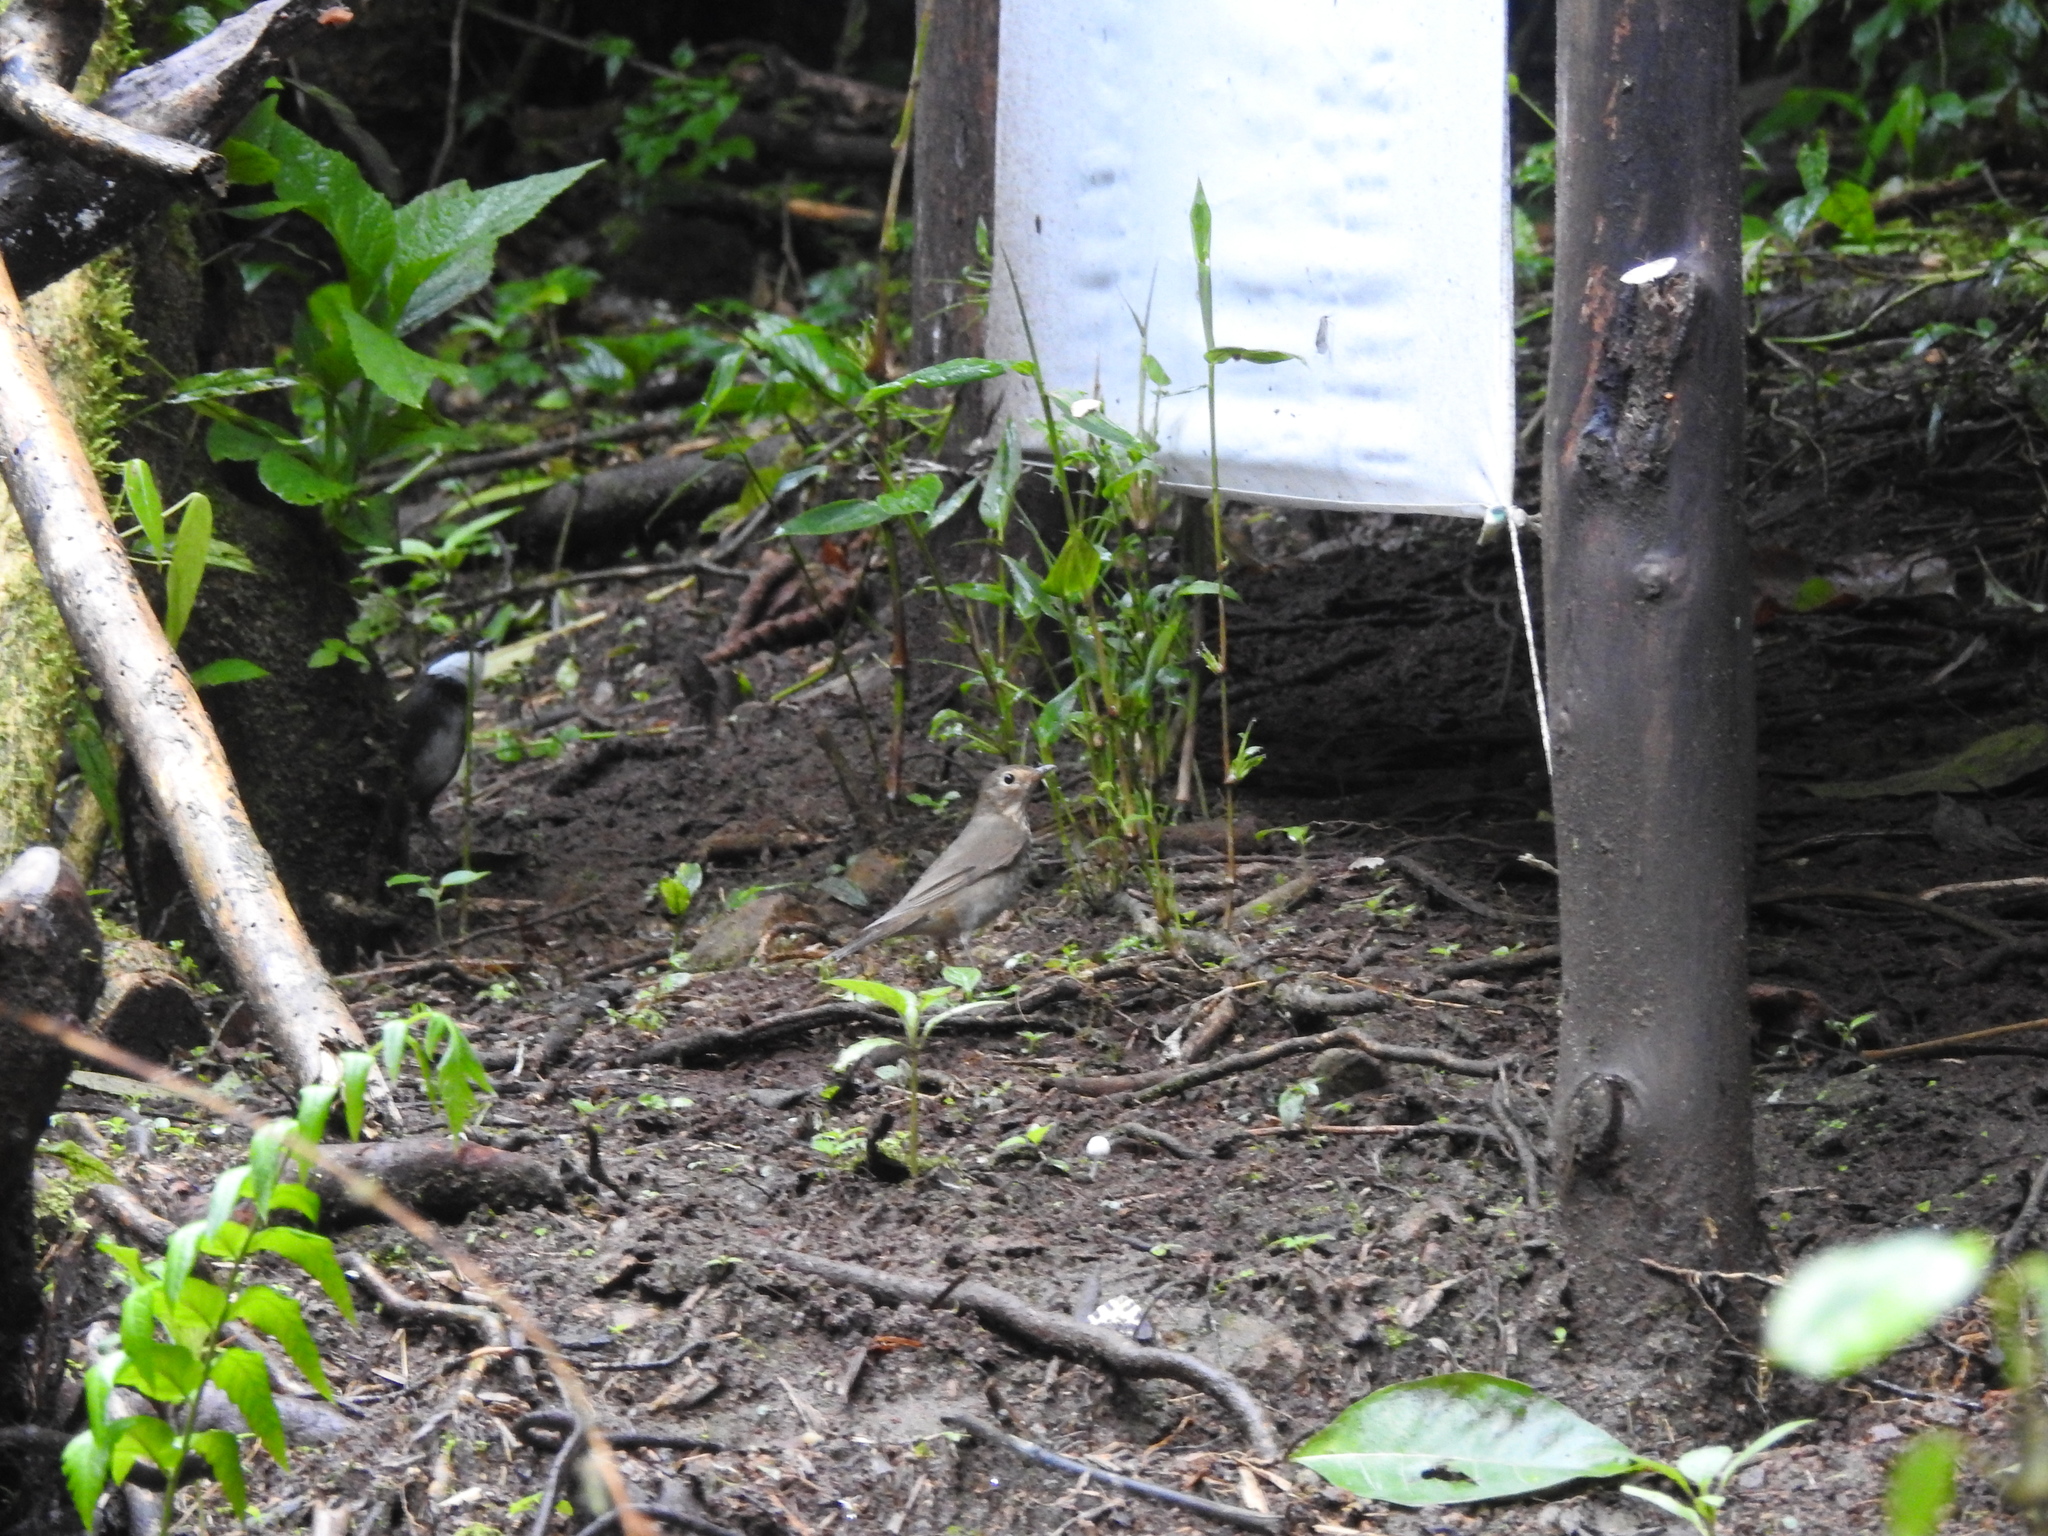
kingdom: Animalia
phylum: Chordata
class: Aves
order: Passeriformes
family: Turdidae
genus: Catharus
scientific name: Catharus ustulatus
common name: Swainson's thrush
